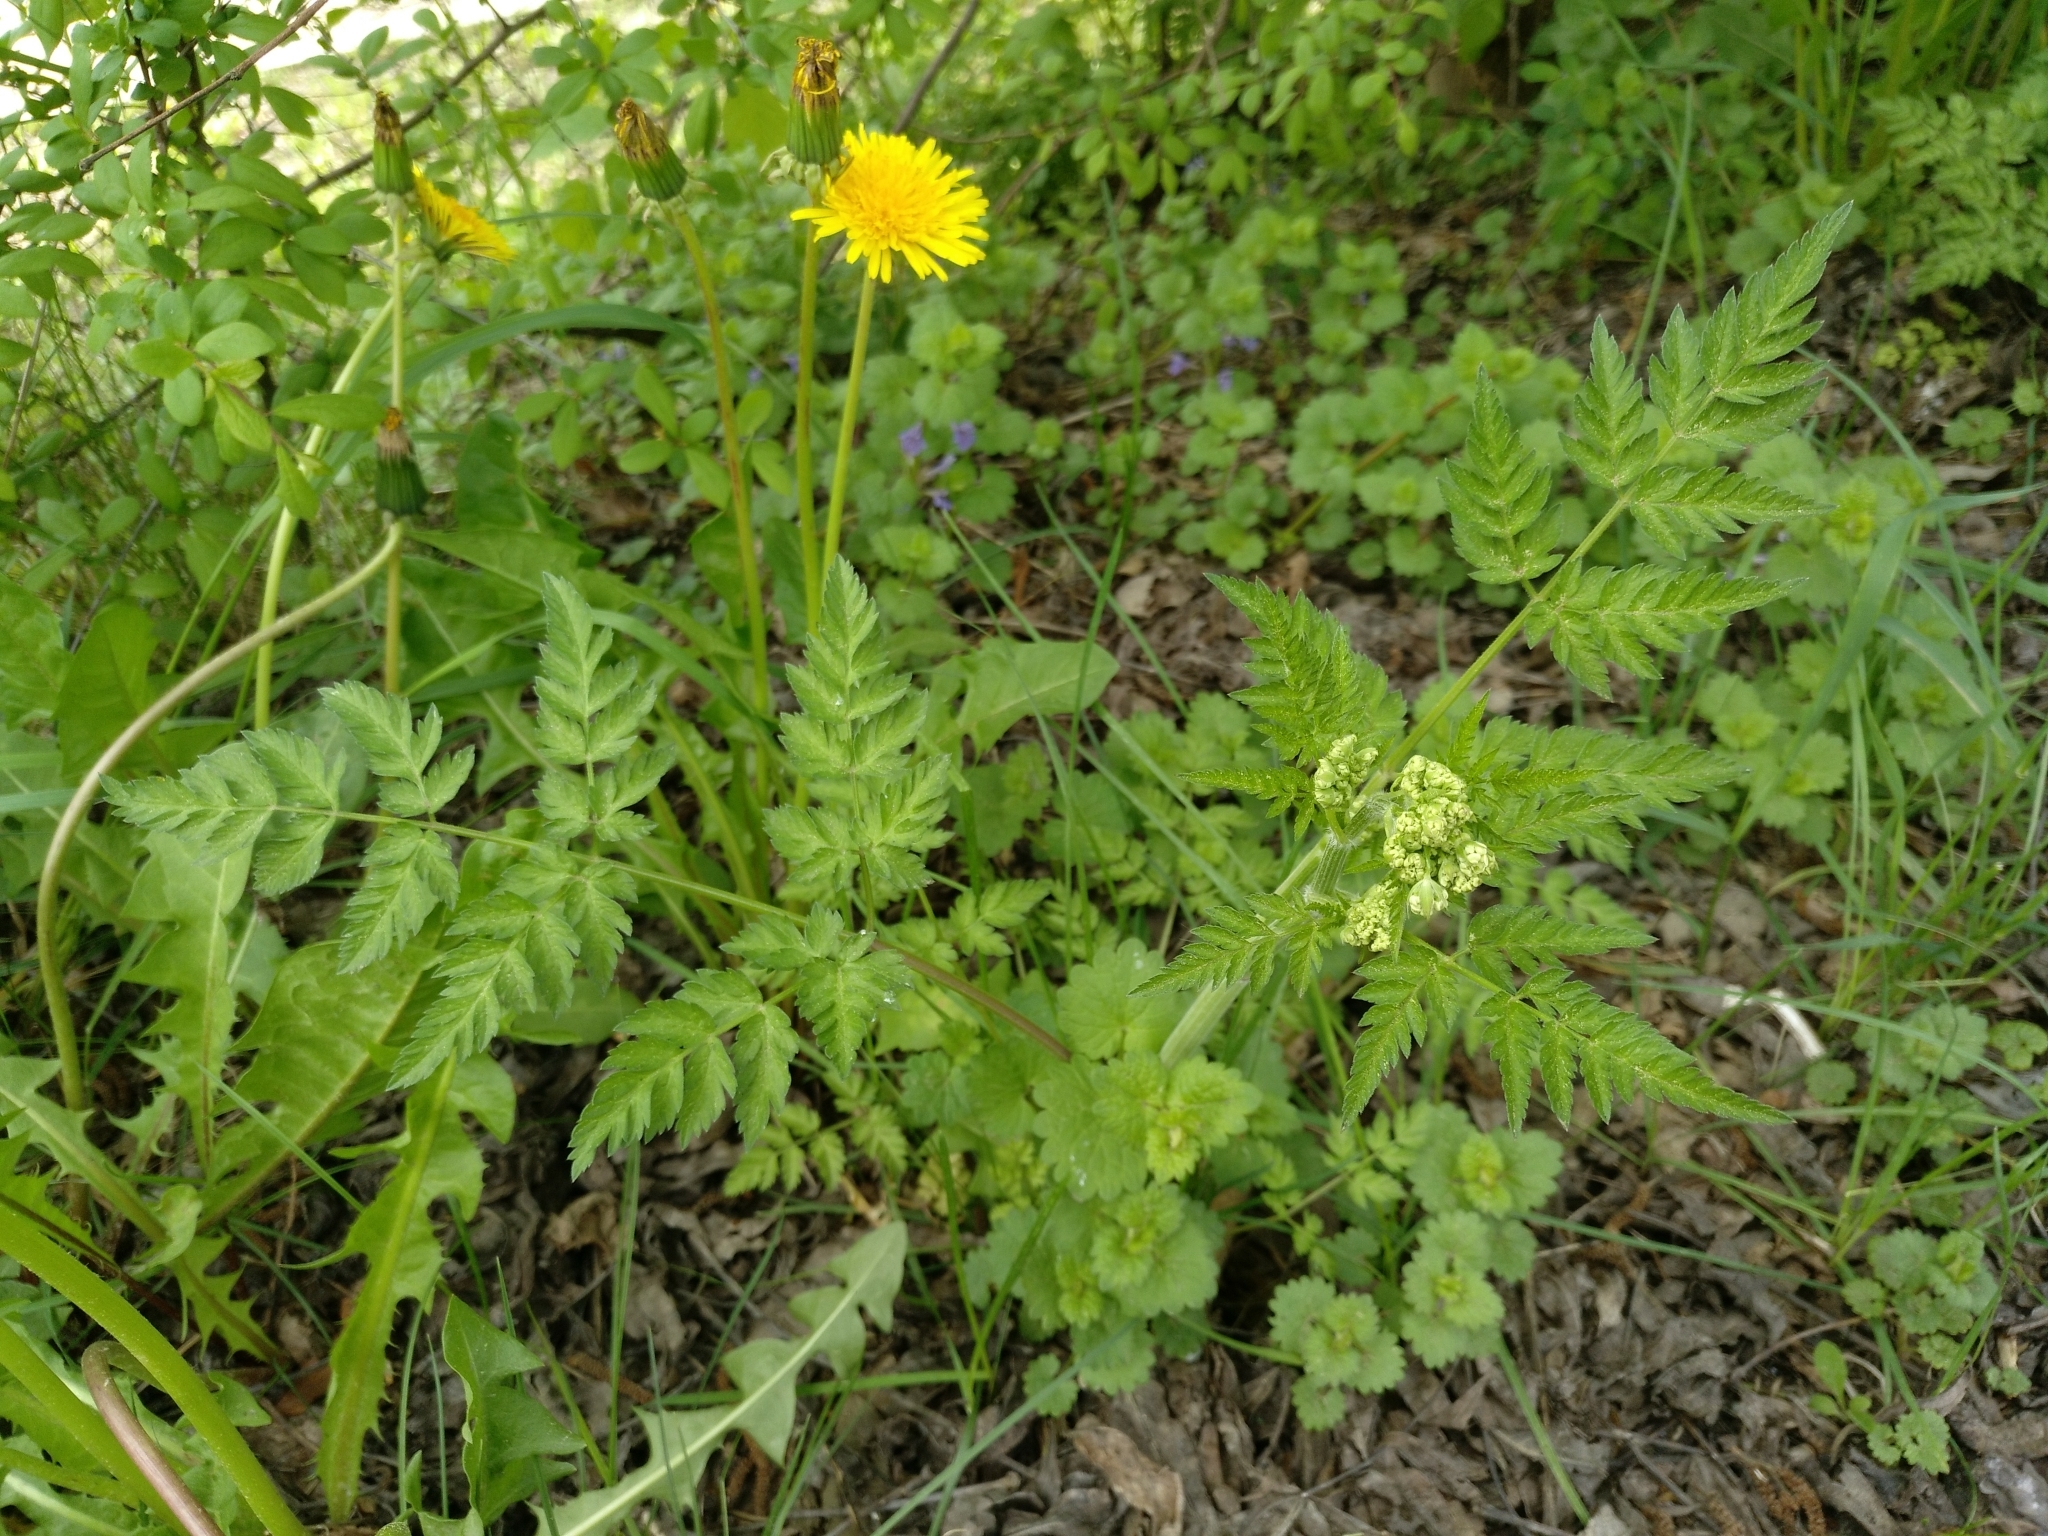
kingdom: Plantae
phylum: Tracheophyta
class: Magnoliopsida
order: Apiales
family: Apiaceae
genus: Anthriscus
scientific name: Anthriscus sylvestris
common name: Cow parsley
